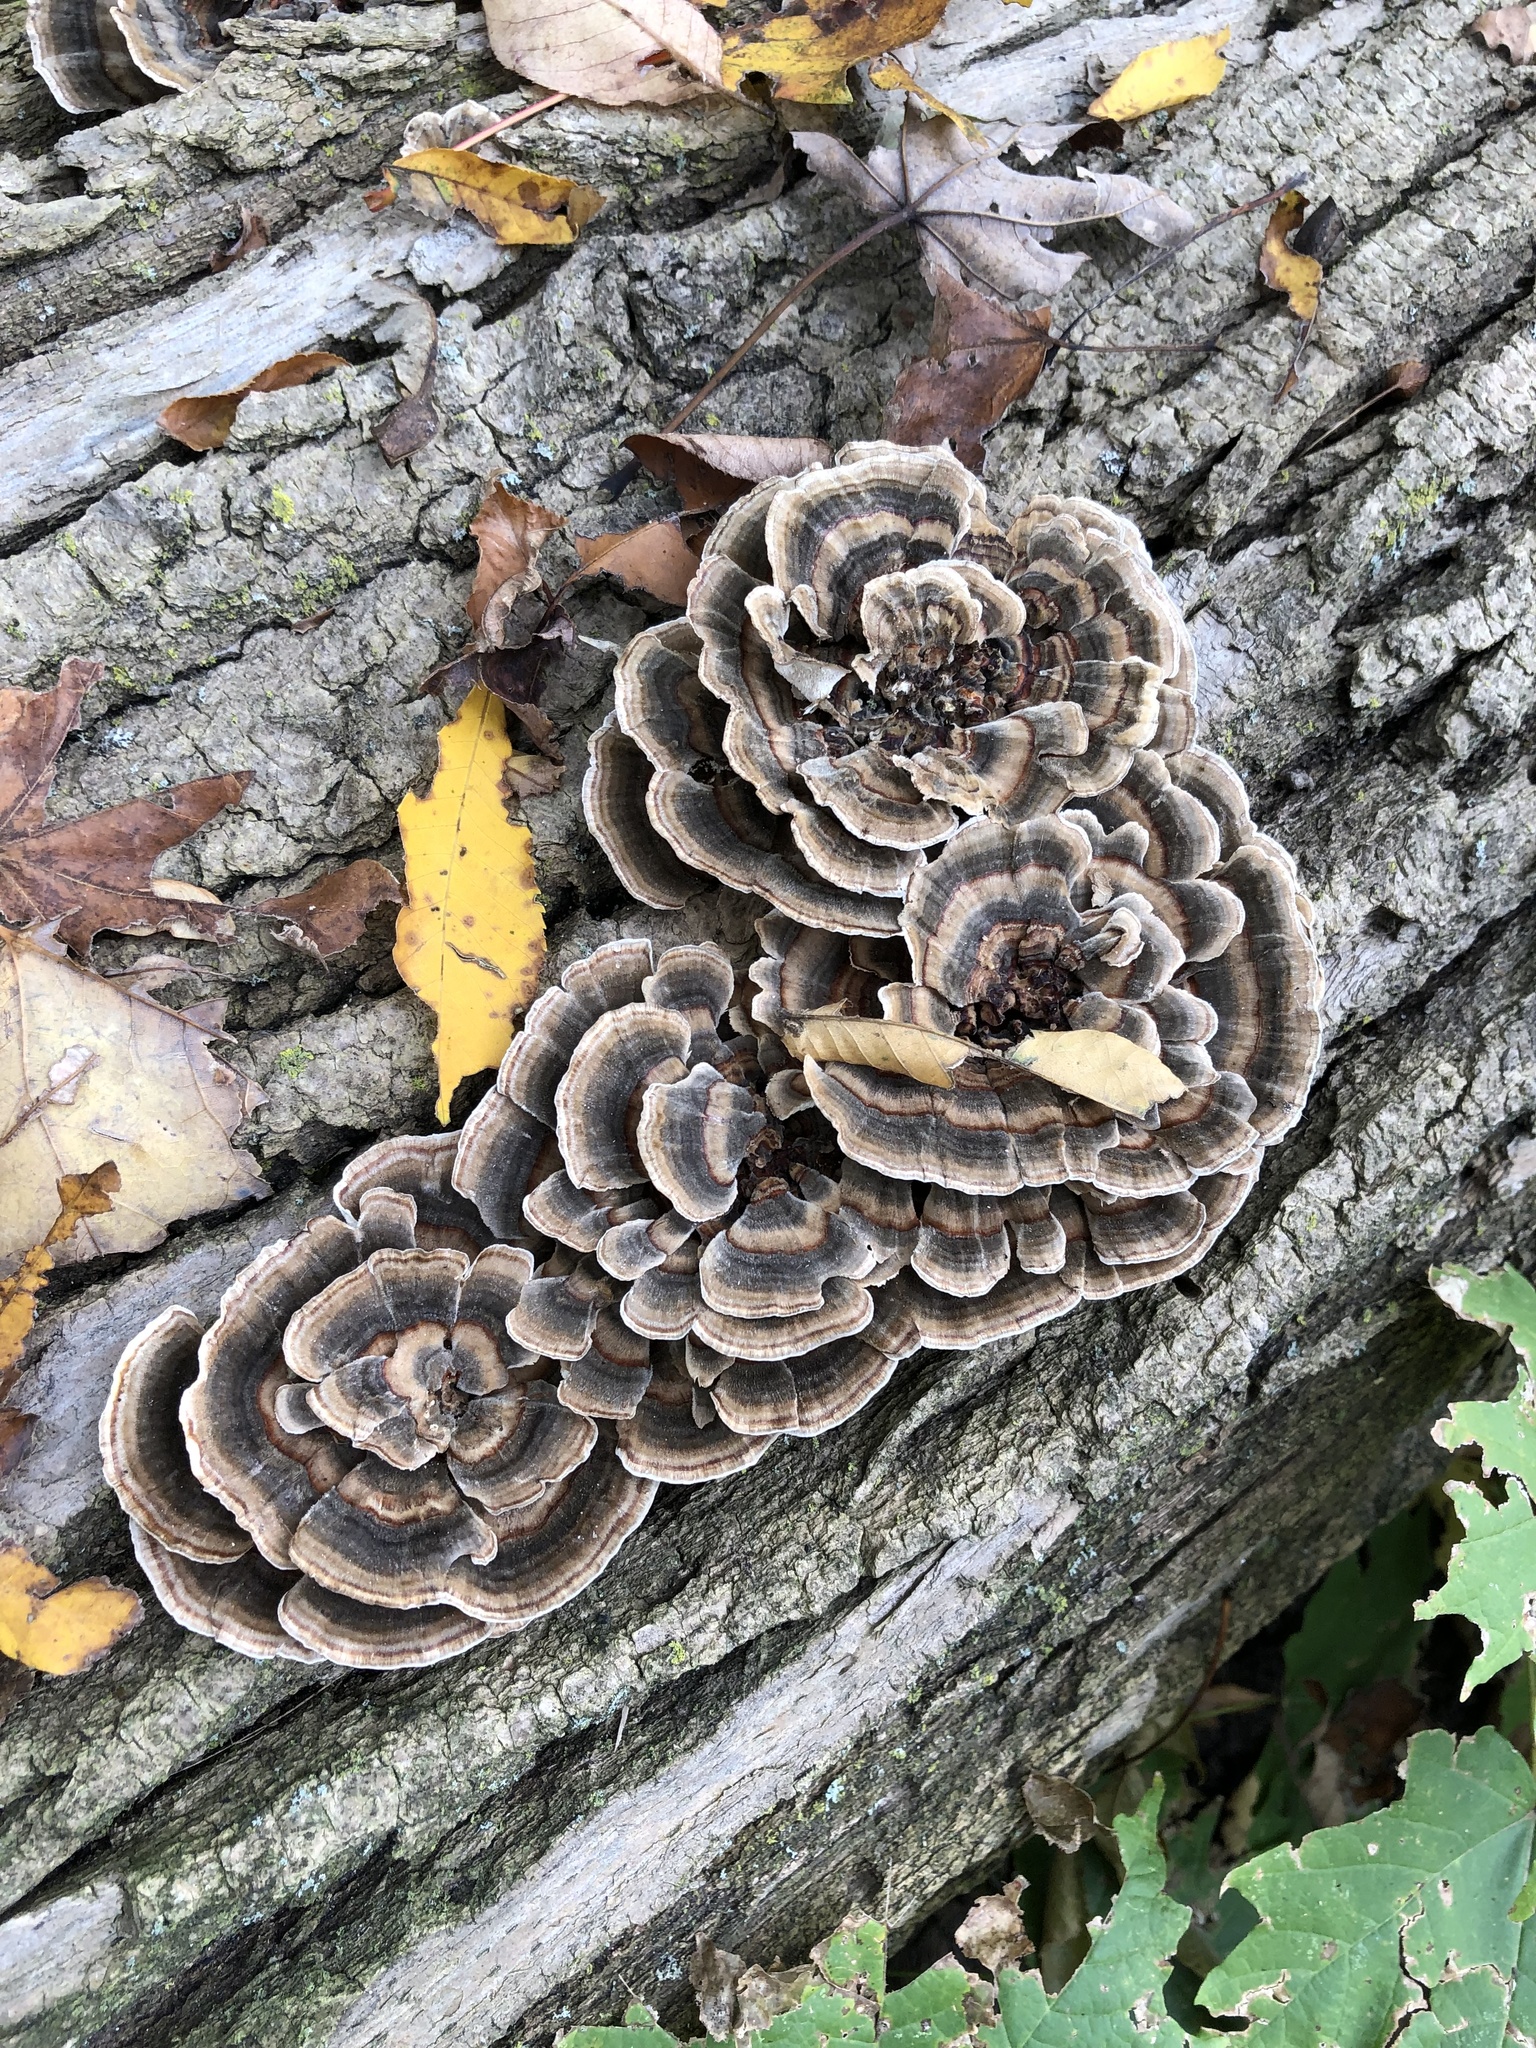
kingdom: Fungi
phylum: Basidiomycota
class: Agaricomycetes
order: Polyporales
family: Polyporaceae
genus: Trametes
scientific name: Trametes versicolor
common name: Turkeytail
